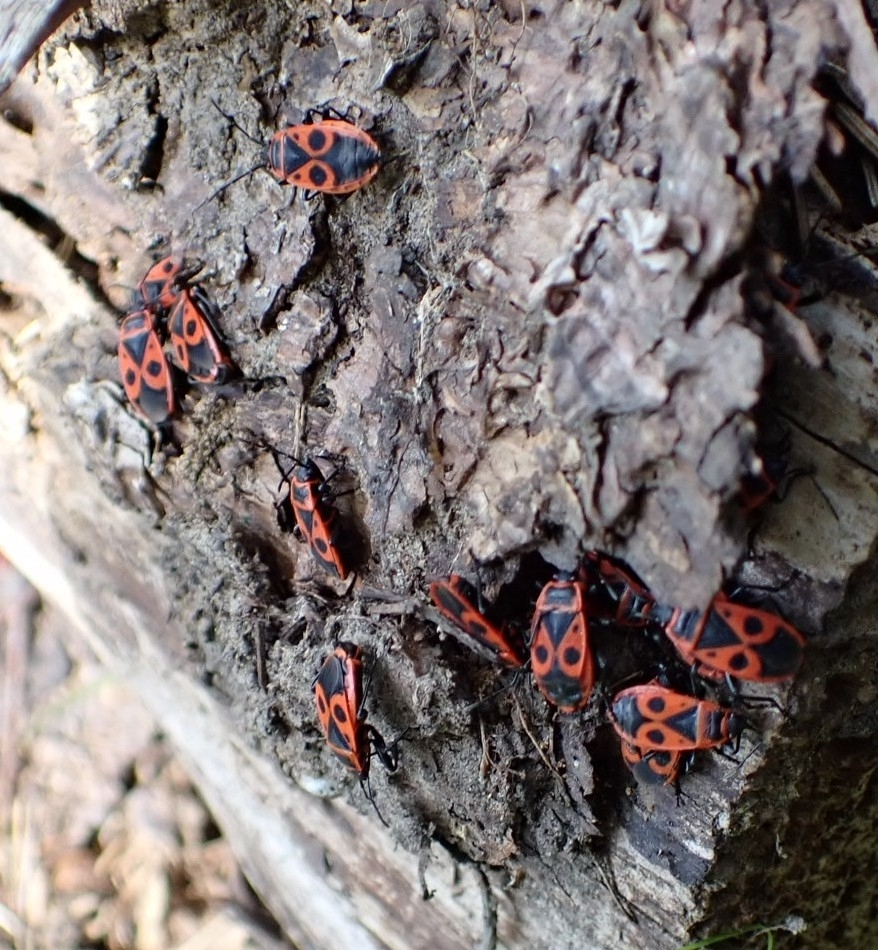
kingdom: Animalia
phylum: Arthropoda
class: Insecta
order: Hemiptera
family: Pyrrhocoridae
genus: Pyrrhocoris
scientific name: Pyrrhocoris apterus
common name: Firebug
